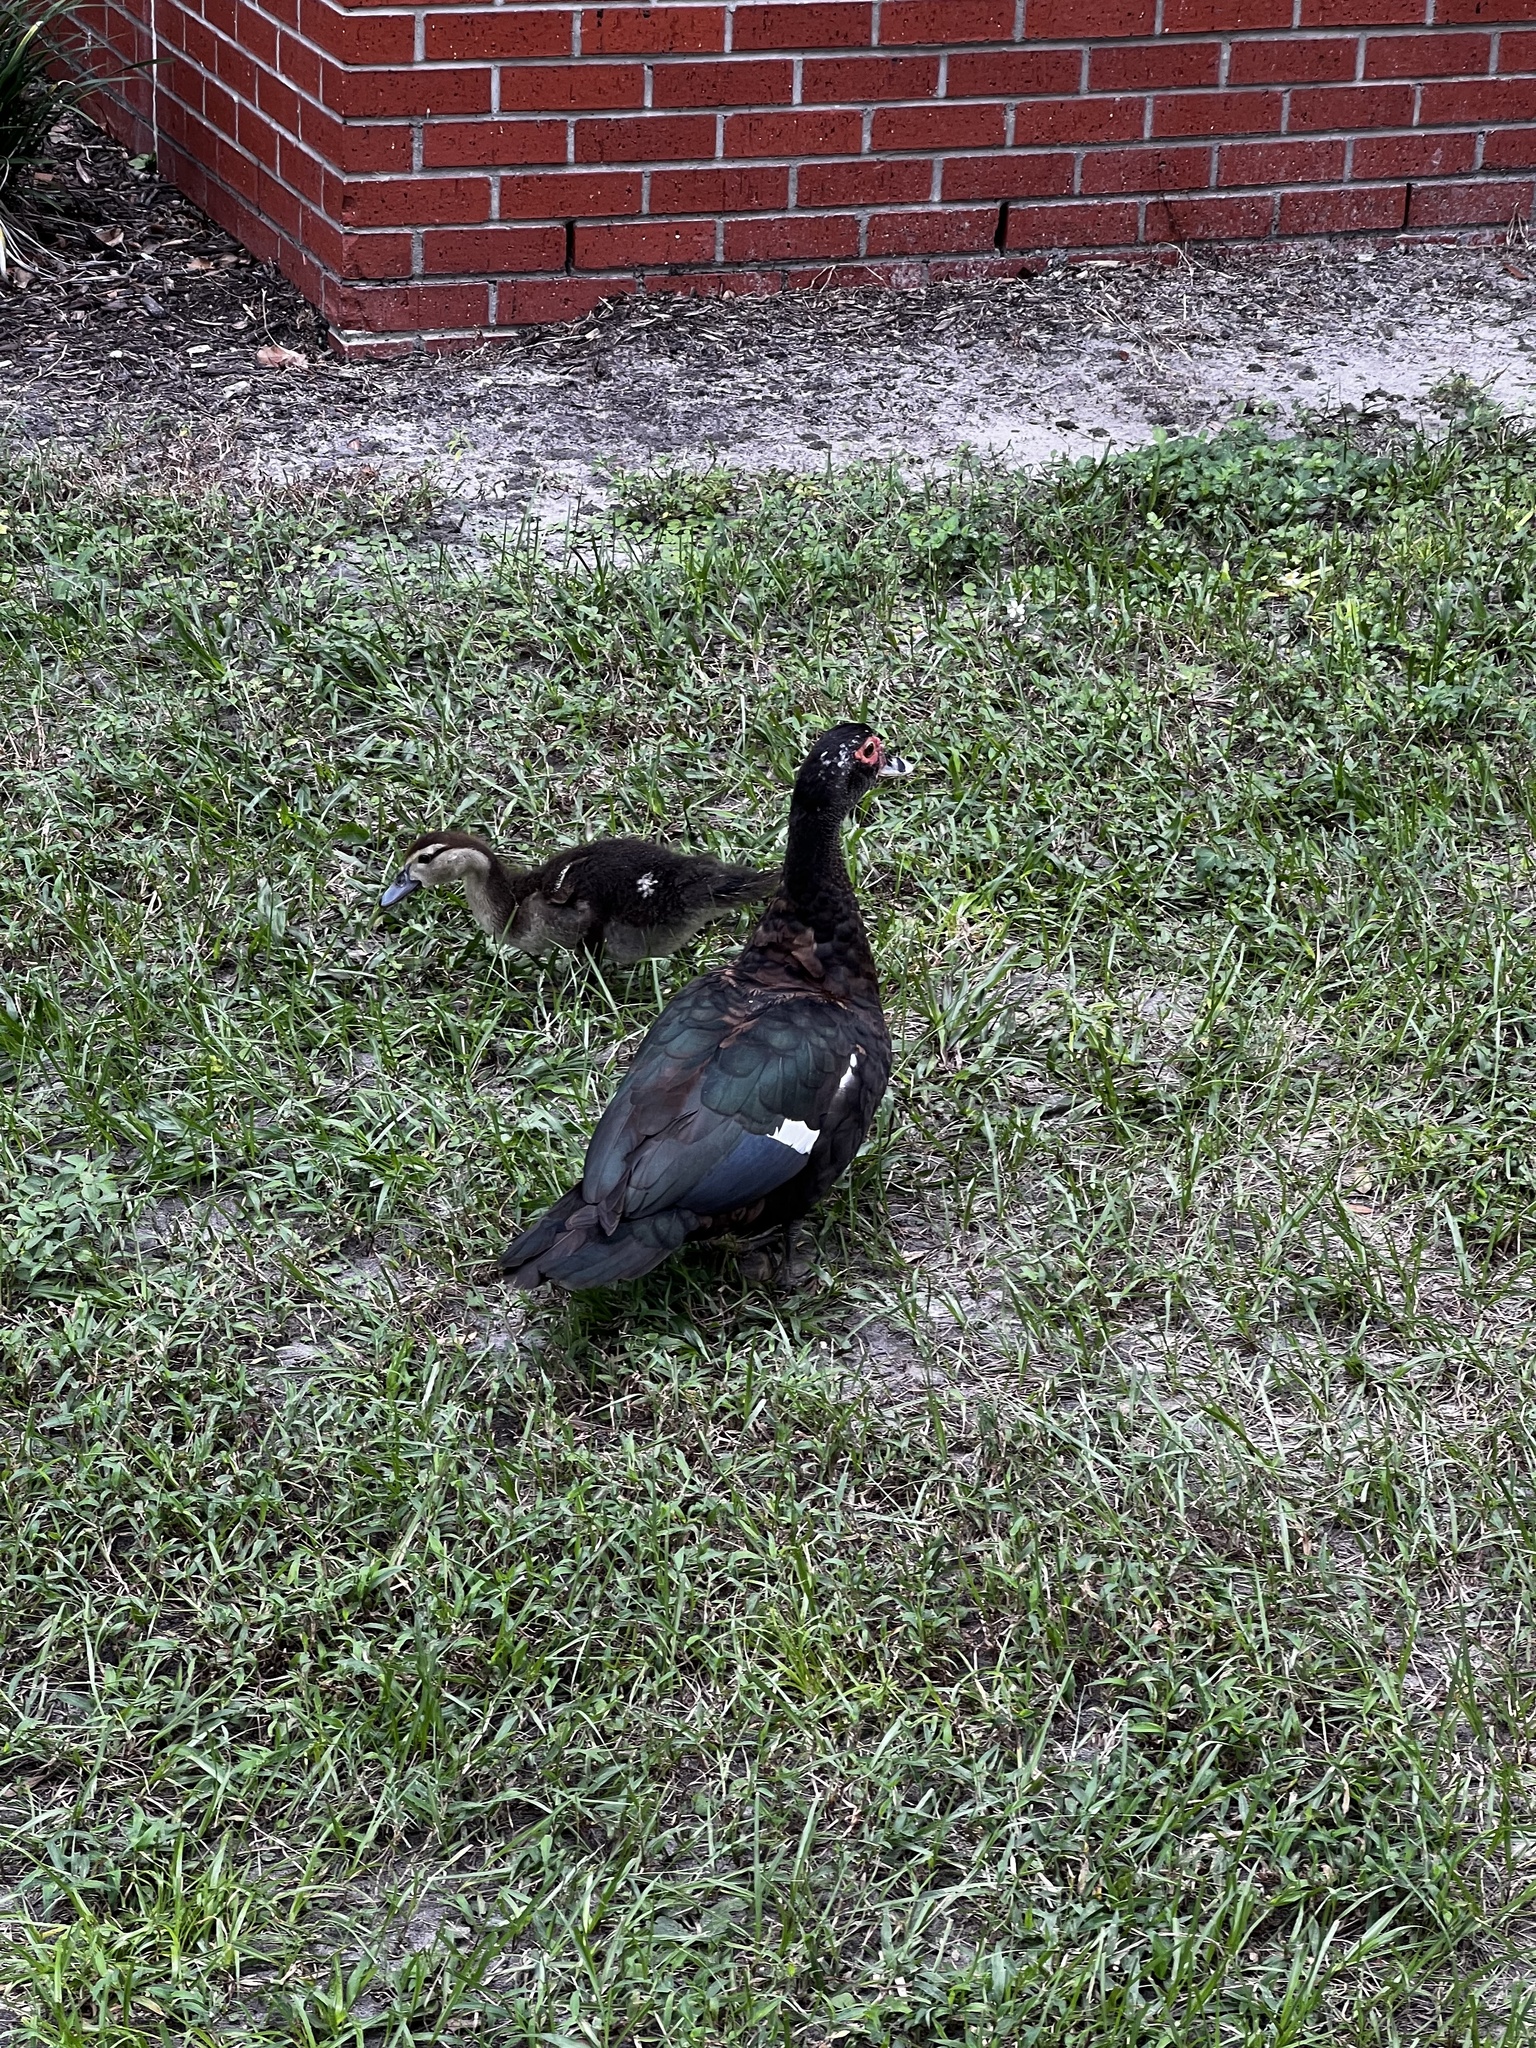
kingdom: Animalia
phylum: Chordata
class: Aves
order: Anseriformes
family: Anatidae
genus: Cairina
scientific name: Cairina moschata
